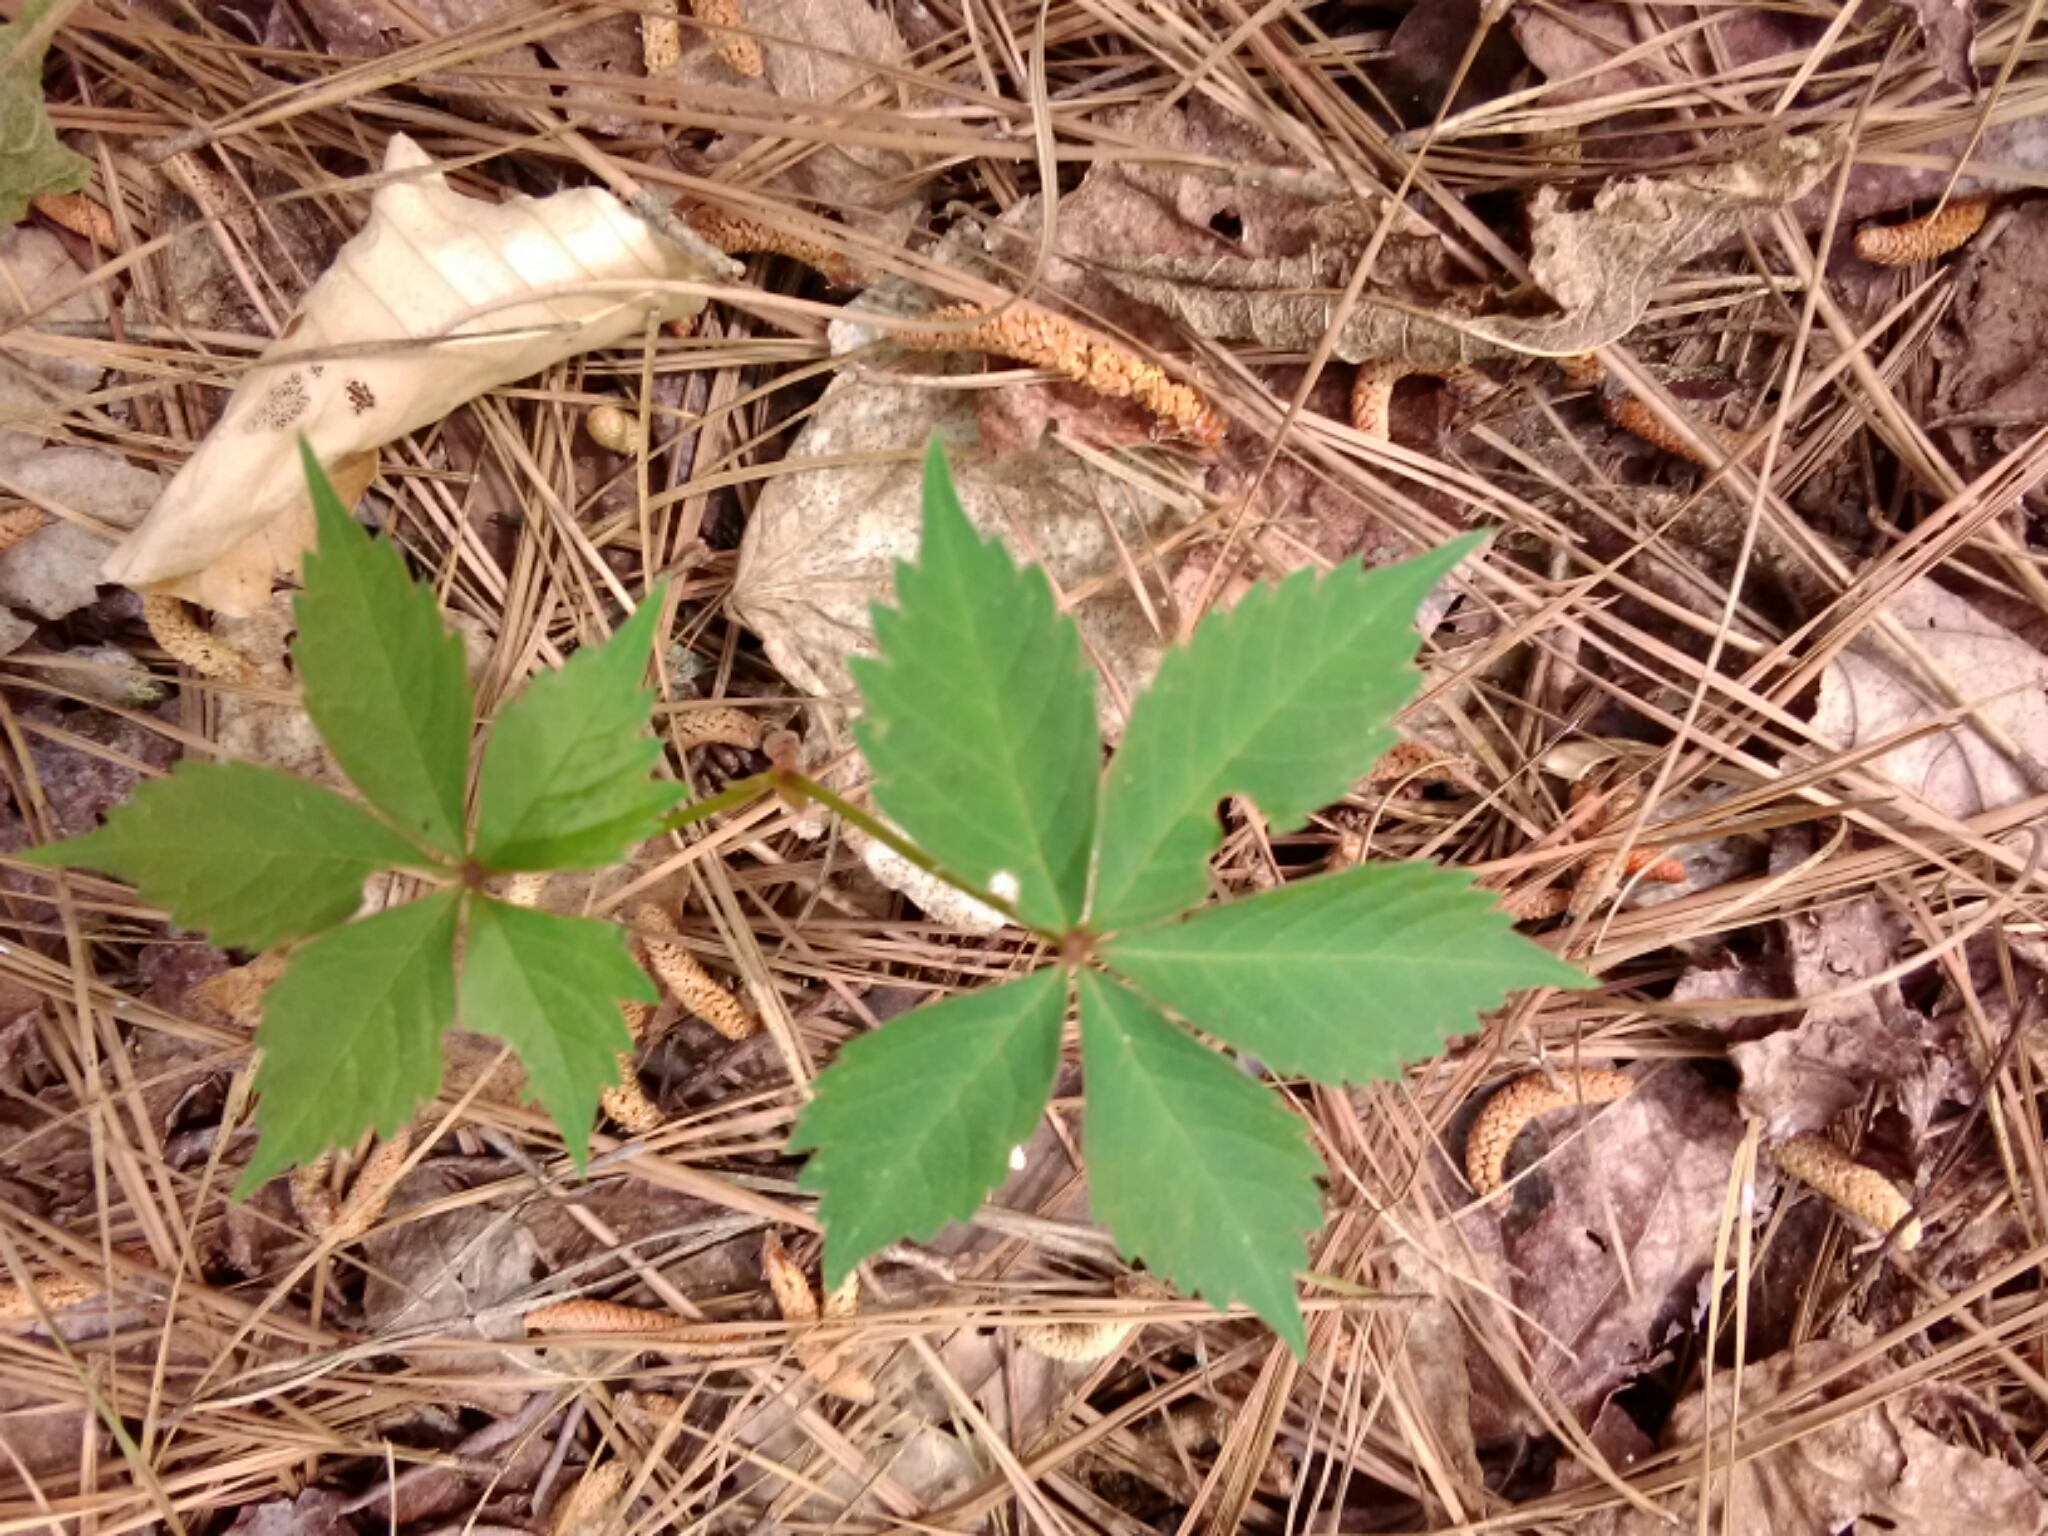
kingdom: Plantae
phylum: Tracheophyta
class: Magnoliopsida
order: Vitales
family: Vitaceae
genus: Parthenocissus
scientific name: Parthenocissus quinquefolia
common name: Virginia-creeper
